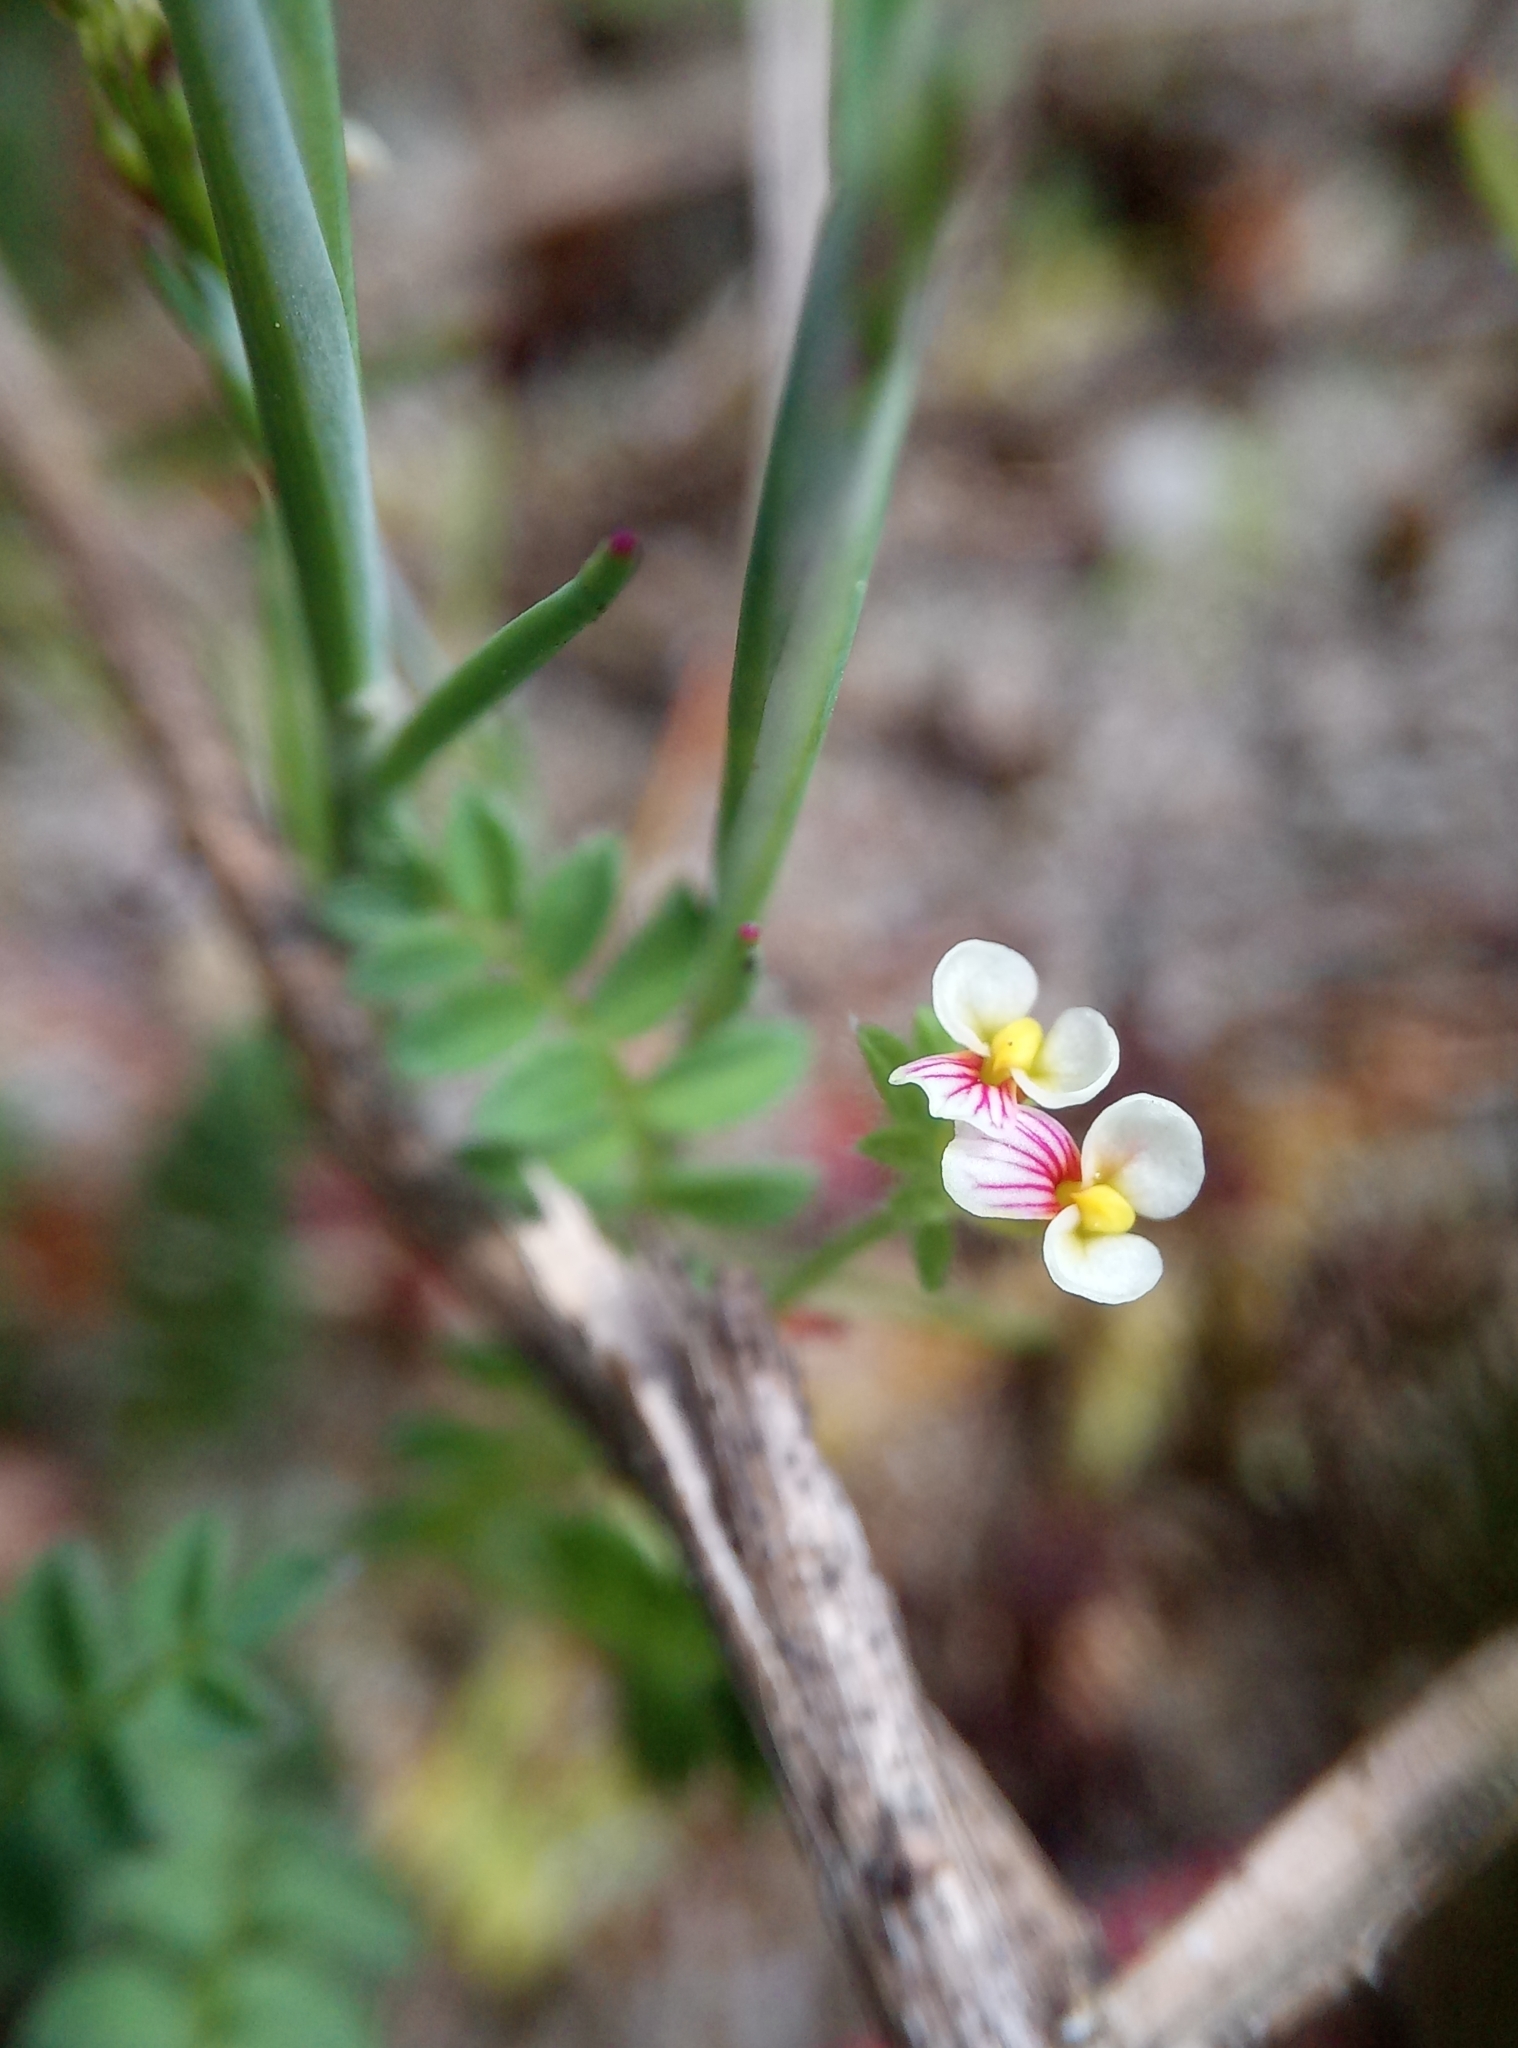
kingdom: Plantae
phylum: Tracheophyta
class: Magnoliopsida
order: Fabales
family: Fabaceae
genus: Ornithopus
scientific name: Ornithopus perpusillus
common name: Bird's-foot
